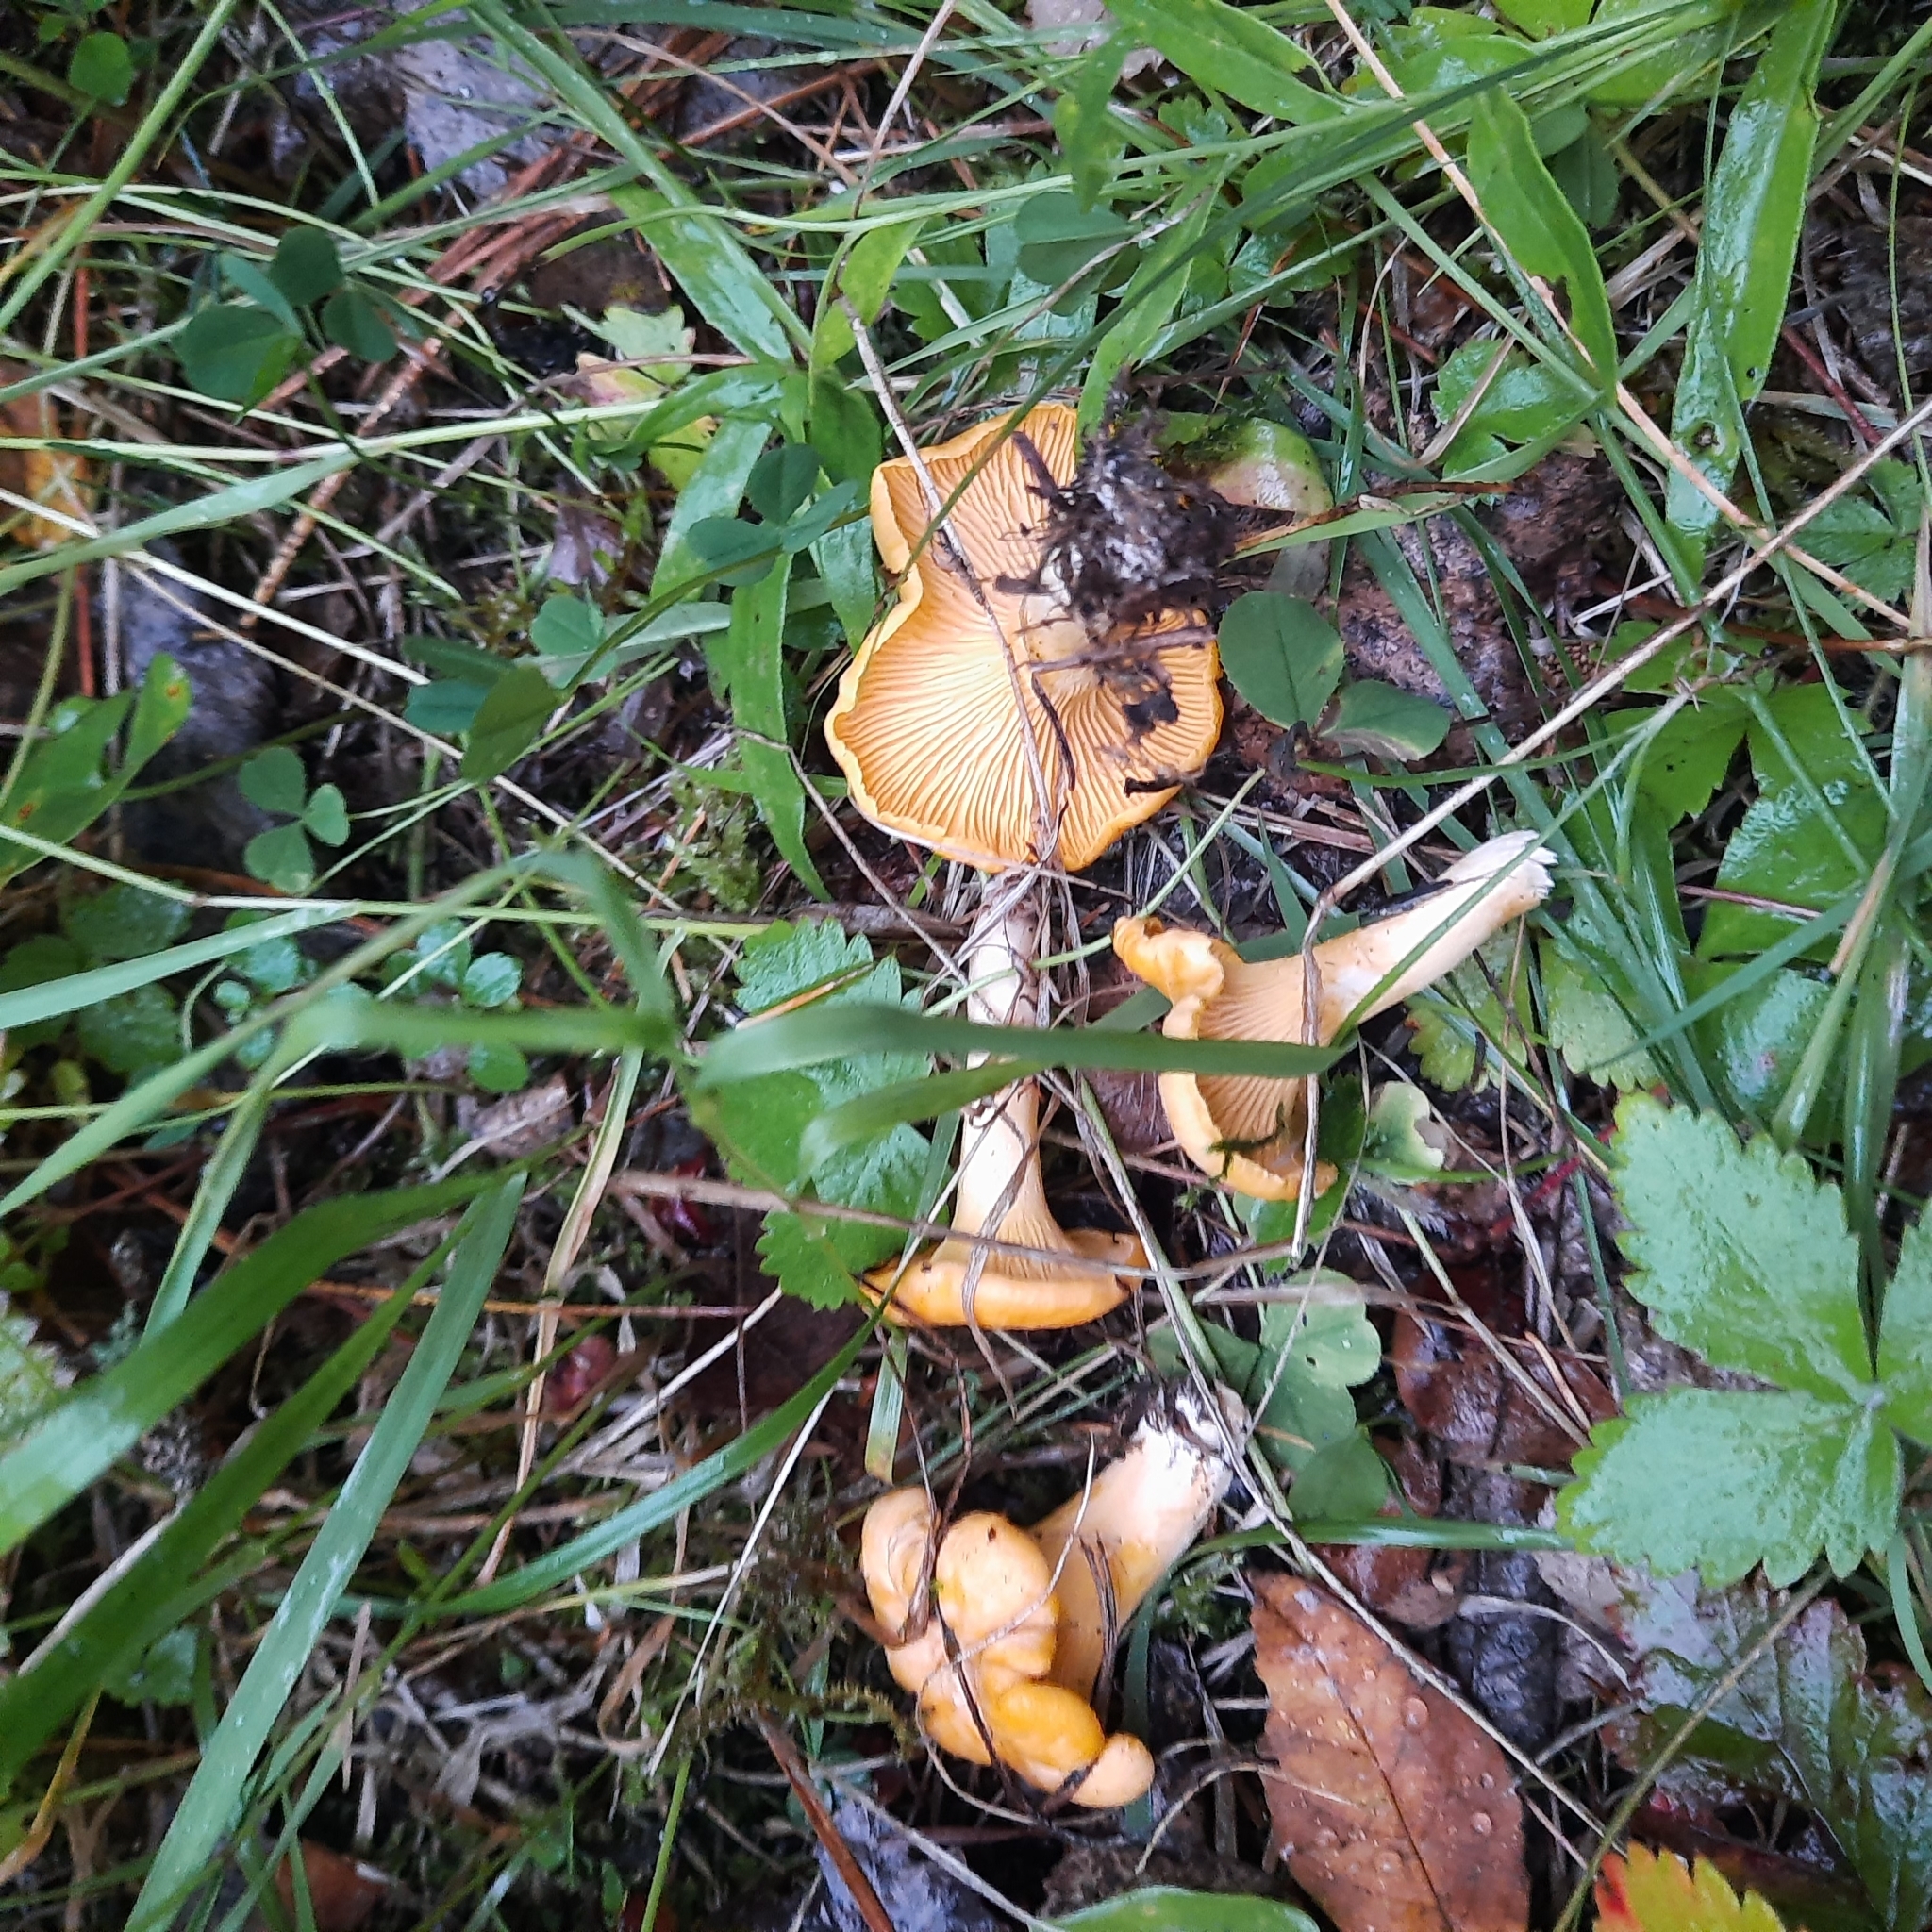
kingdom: Fungi
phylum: Basidiomycota
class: Agaricomycetes
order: Cantharellales
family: Hydnaceae
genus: Cantharellus
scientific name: Cantharellus cibarius
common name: Chanterelle
